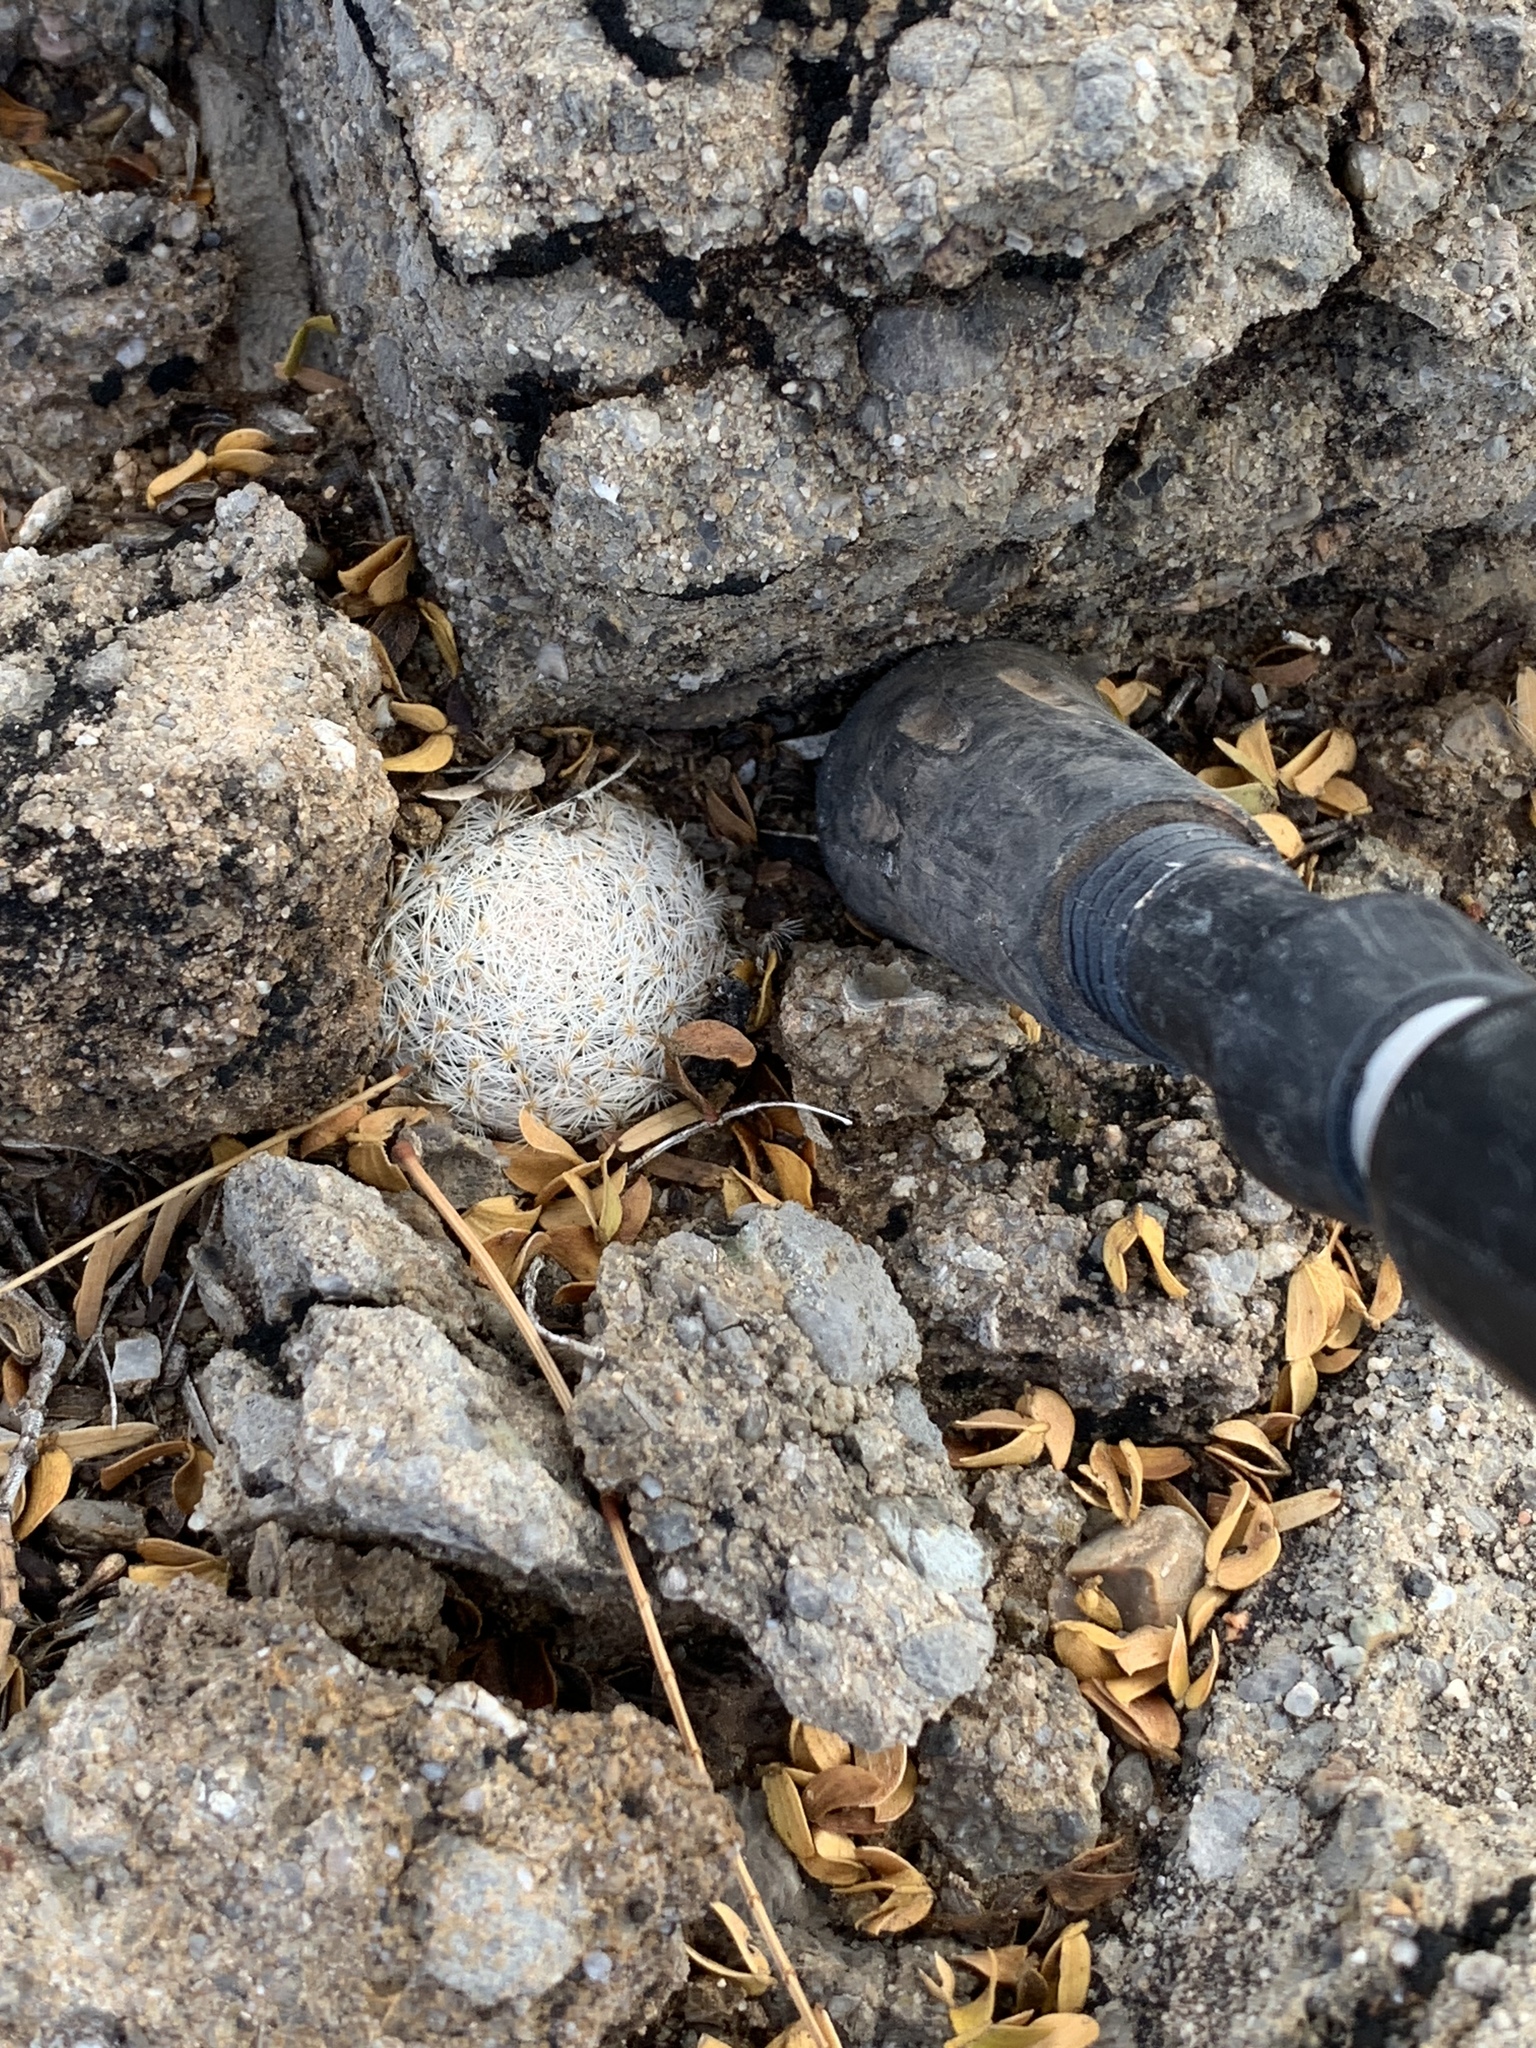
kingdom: Plantae
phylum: Tracheophyta
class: Magnoliopsida
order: Caryophyllales
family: Cactaceae
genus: Mammillaria
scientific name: Mammillaria lasiacantha
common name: Lace-spine nipple cactus
